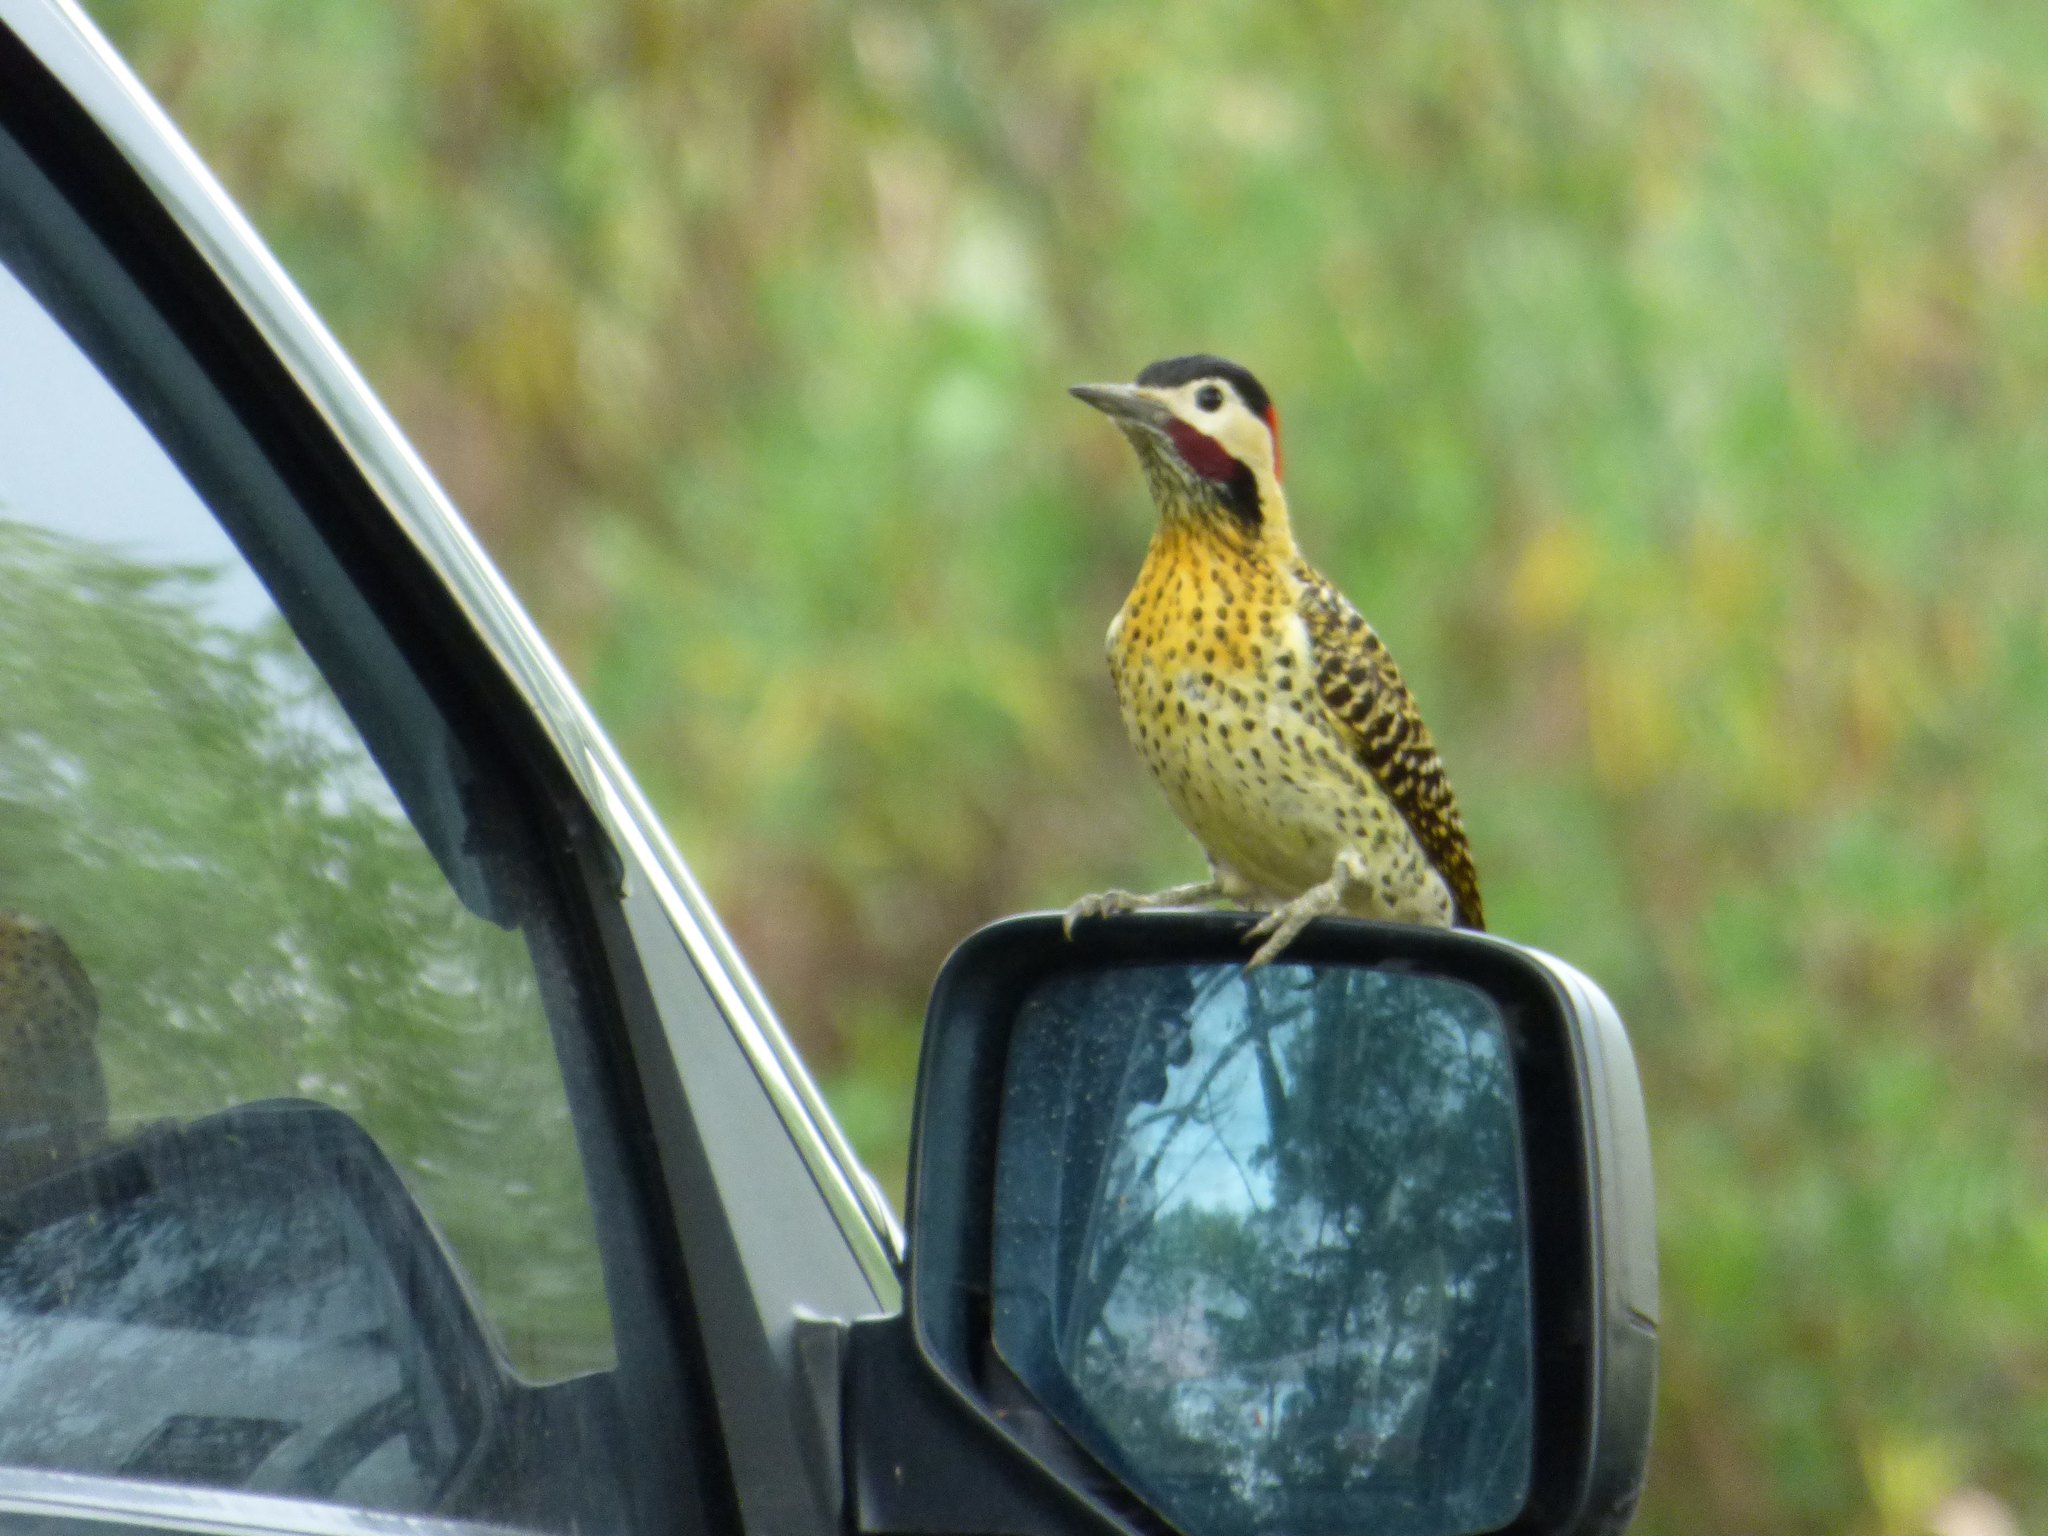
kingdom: Animalia
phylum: Chordata
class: Aves
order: Piciformes
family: Picidae
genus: Colaptes
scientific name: Colaptes melanochloros
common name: Green-barred woodpecker
